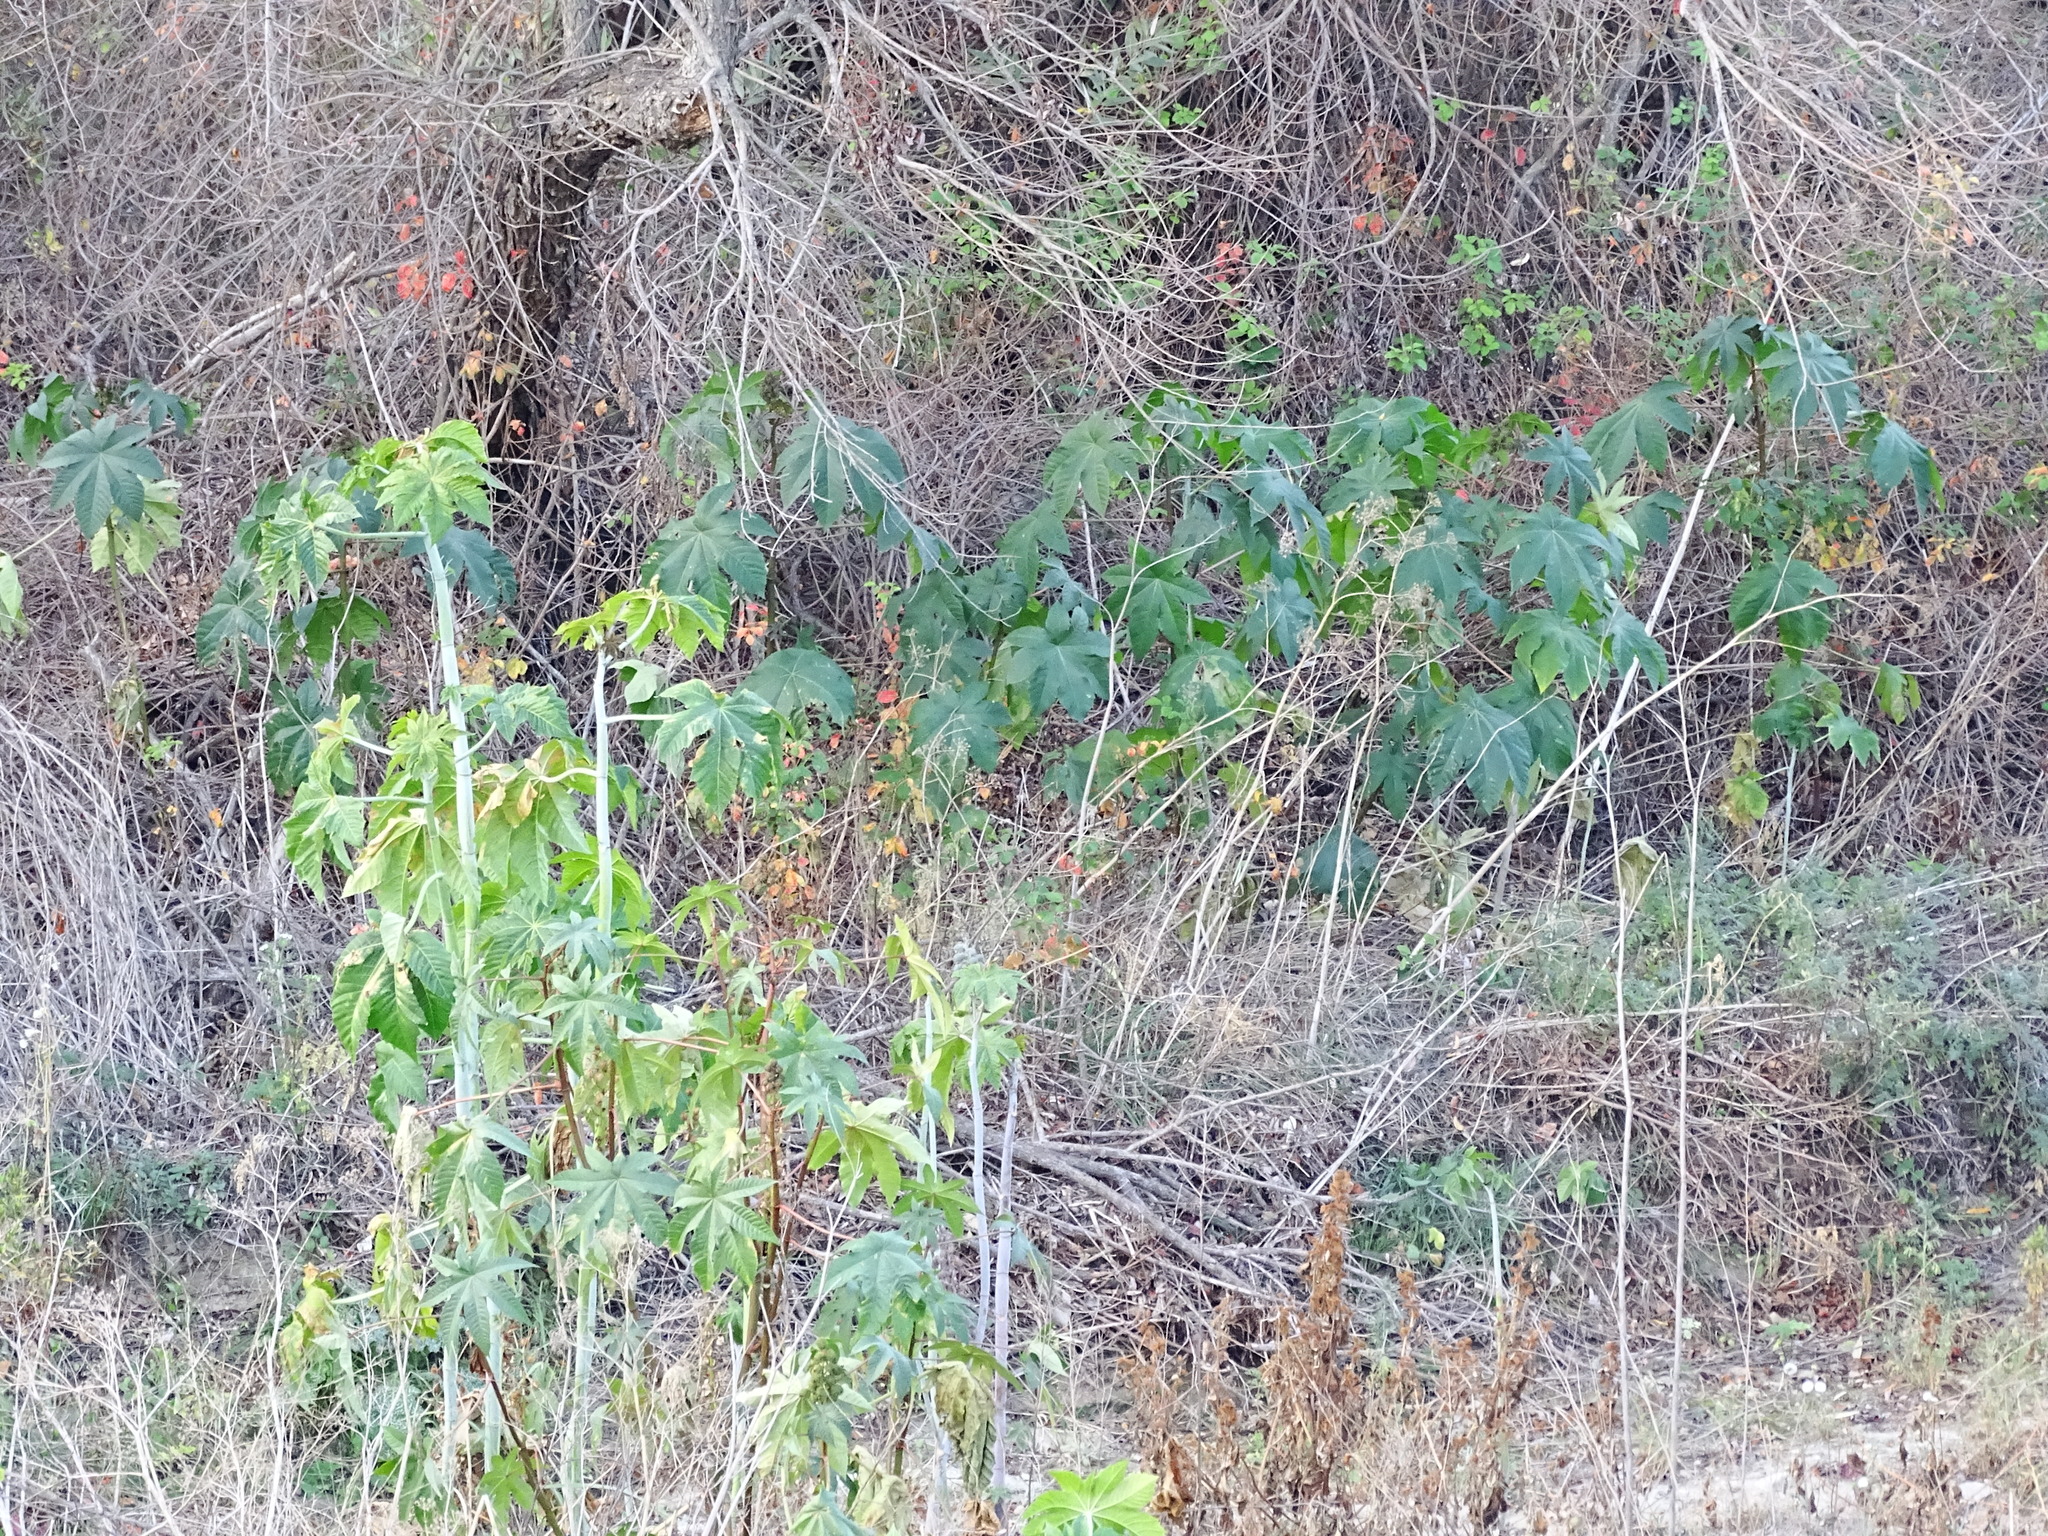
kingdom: Plantae
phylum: Tracheophyta
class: Magnoliopsida
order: Malpighiales
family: Euphorbiaceae
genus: Ricinus
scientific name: Ricinus communis
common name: Castor-oil-plant
